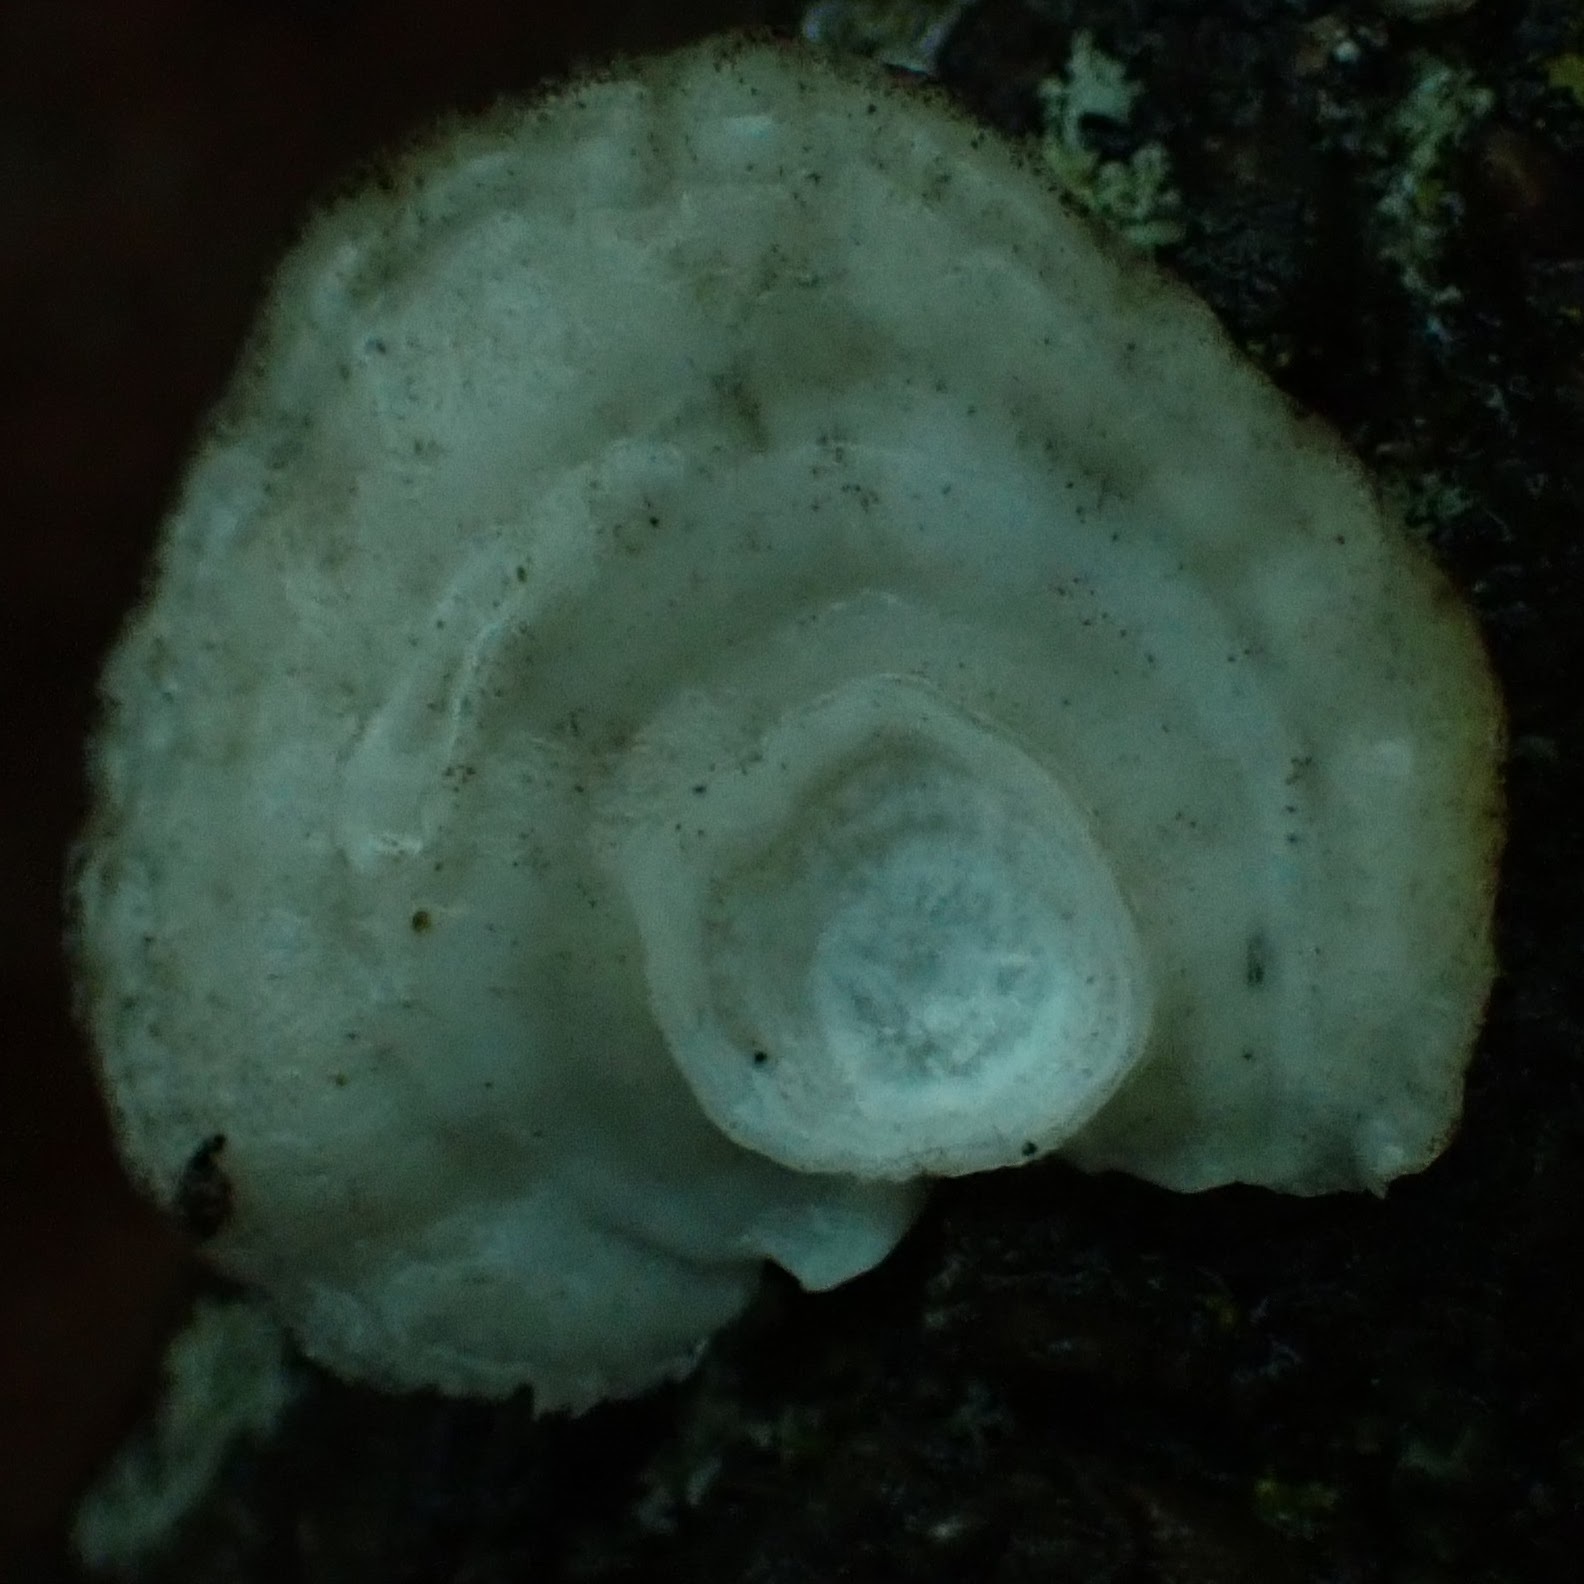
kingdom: Fungi
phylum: Basidiomycota
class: Agaricomycetes
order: Polyporales
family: Polyporaceae
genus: Poronidulus
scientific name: Poronidulus conchifer
